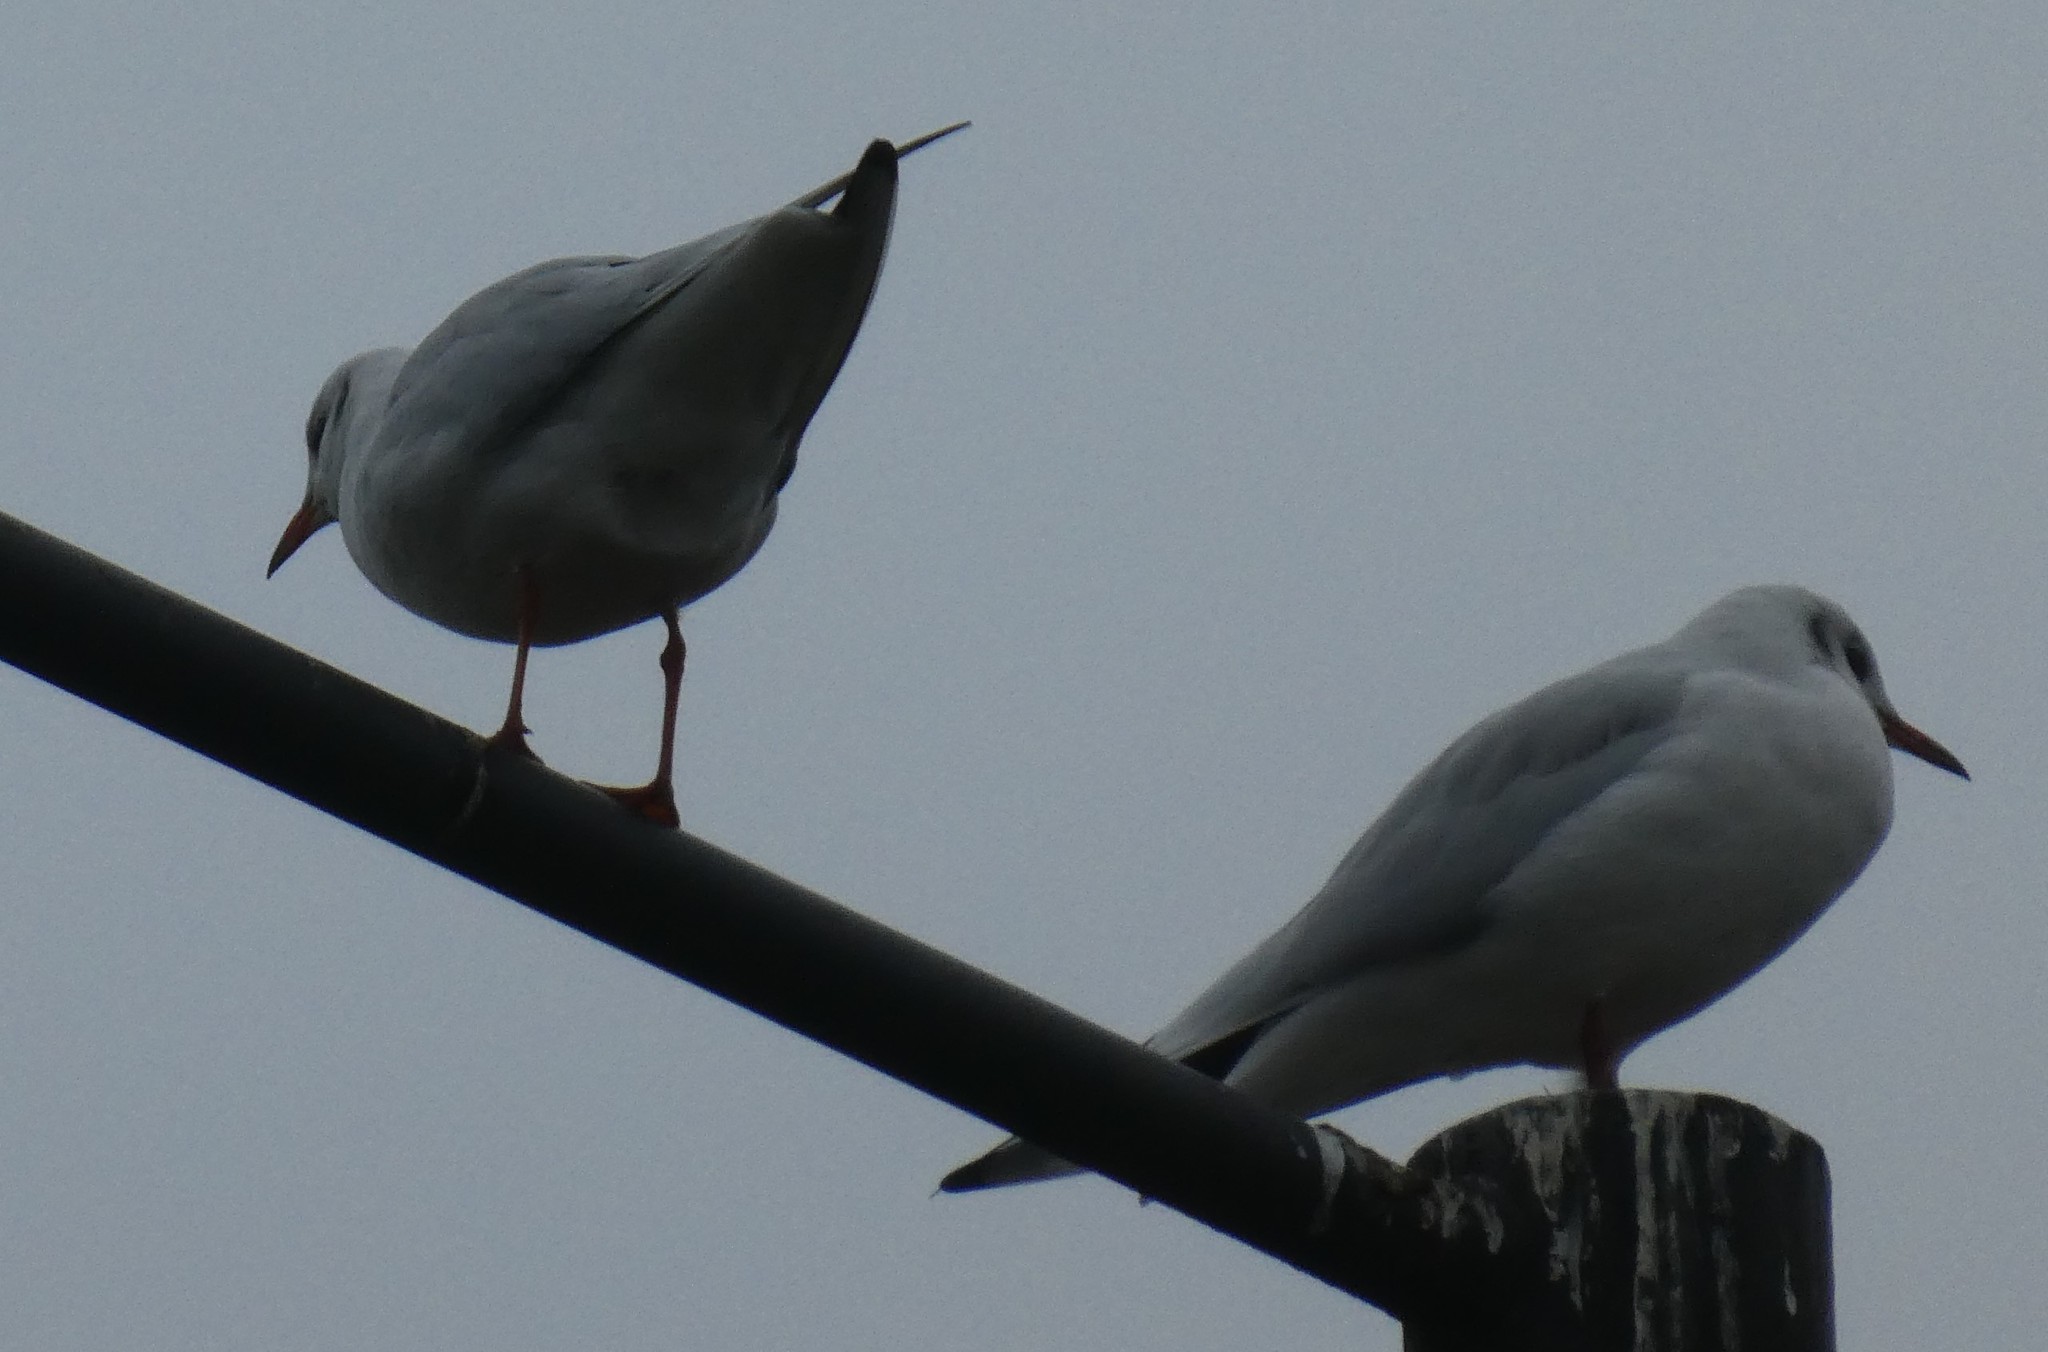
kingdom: Animalia
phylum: Chordata
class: Aves
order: Charadriiformes
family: Laridae
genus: Chroicocephalus
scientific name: Chroicocephalus ridibundus
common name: Black-headed gull
